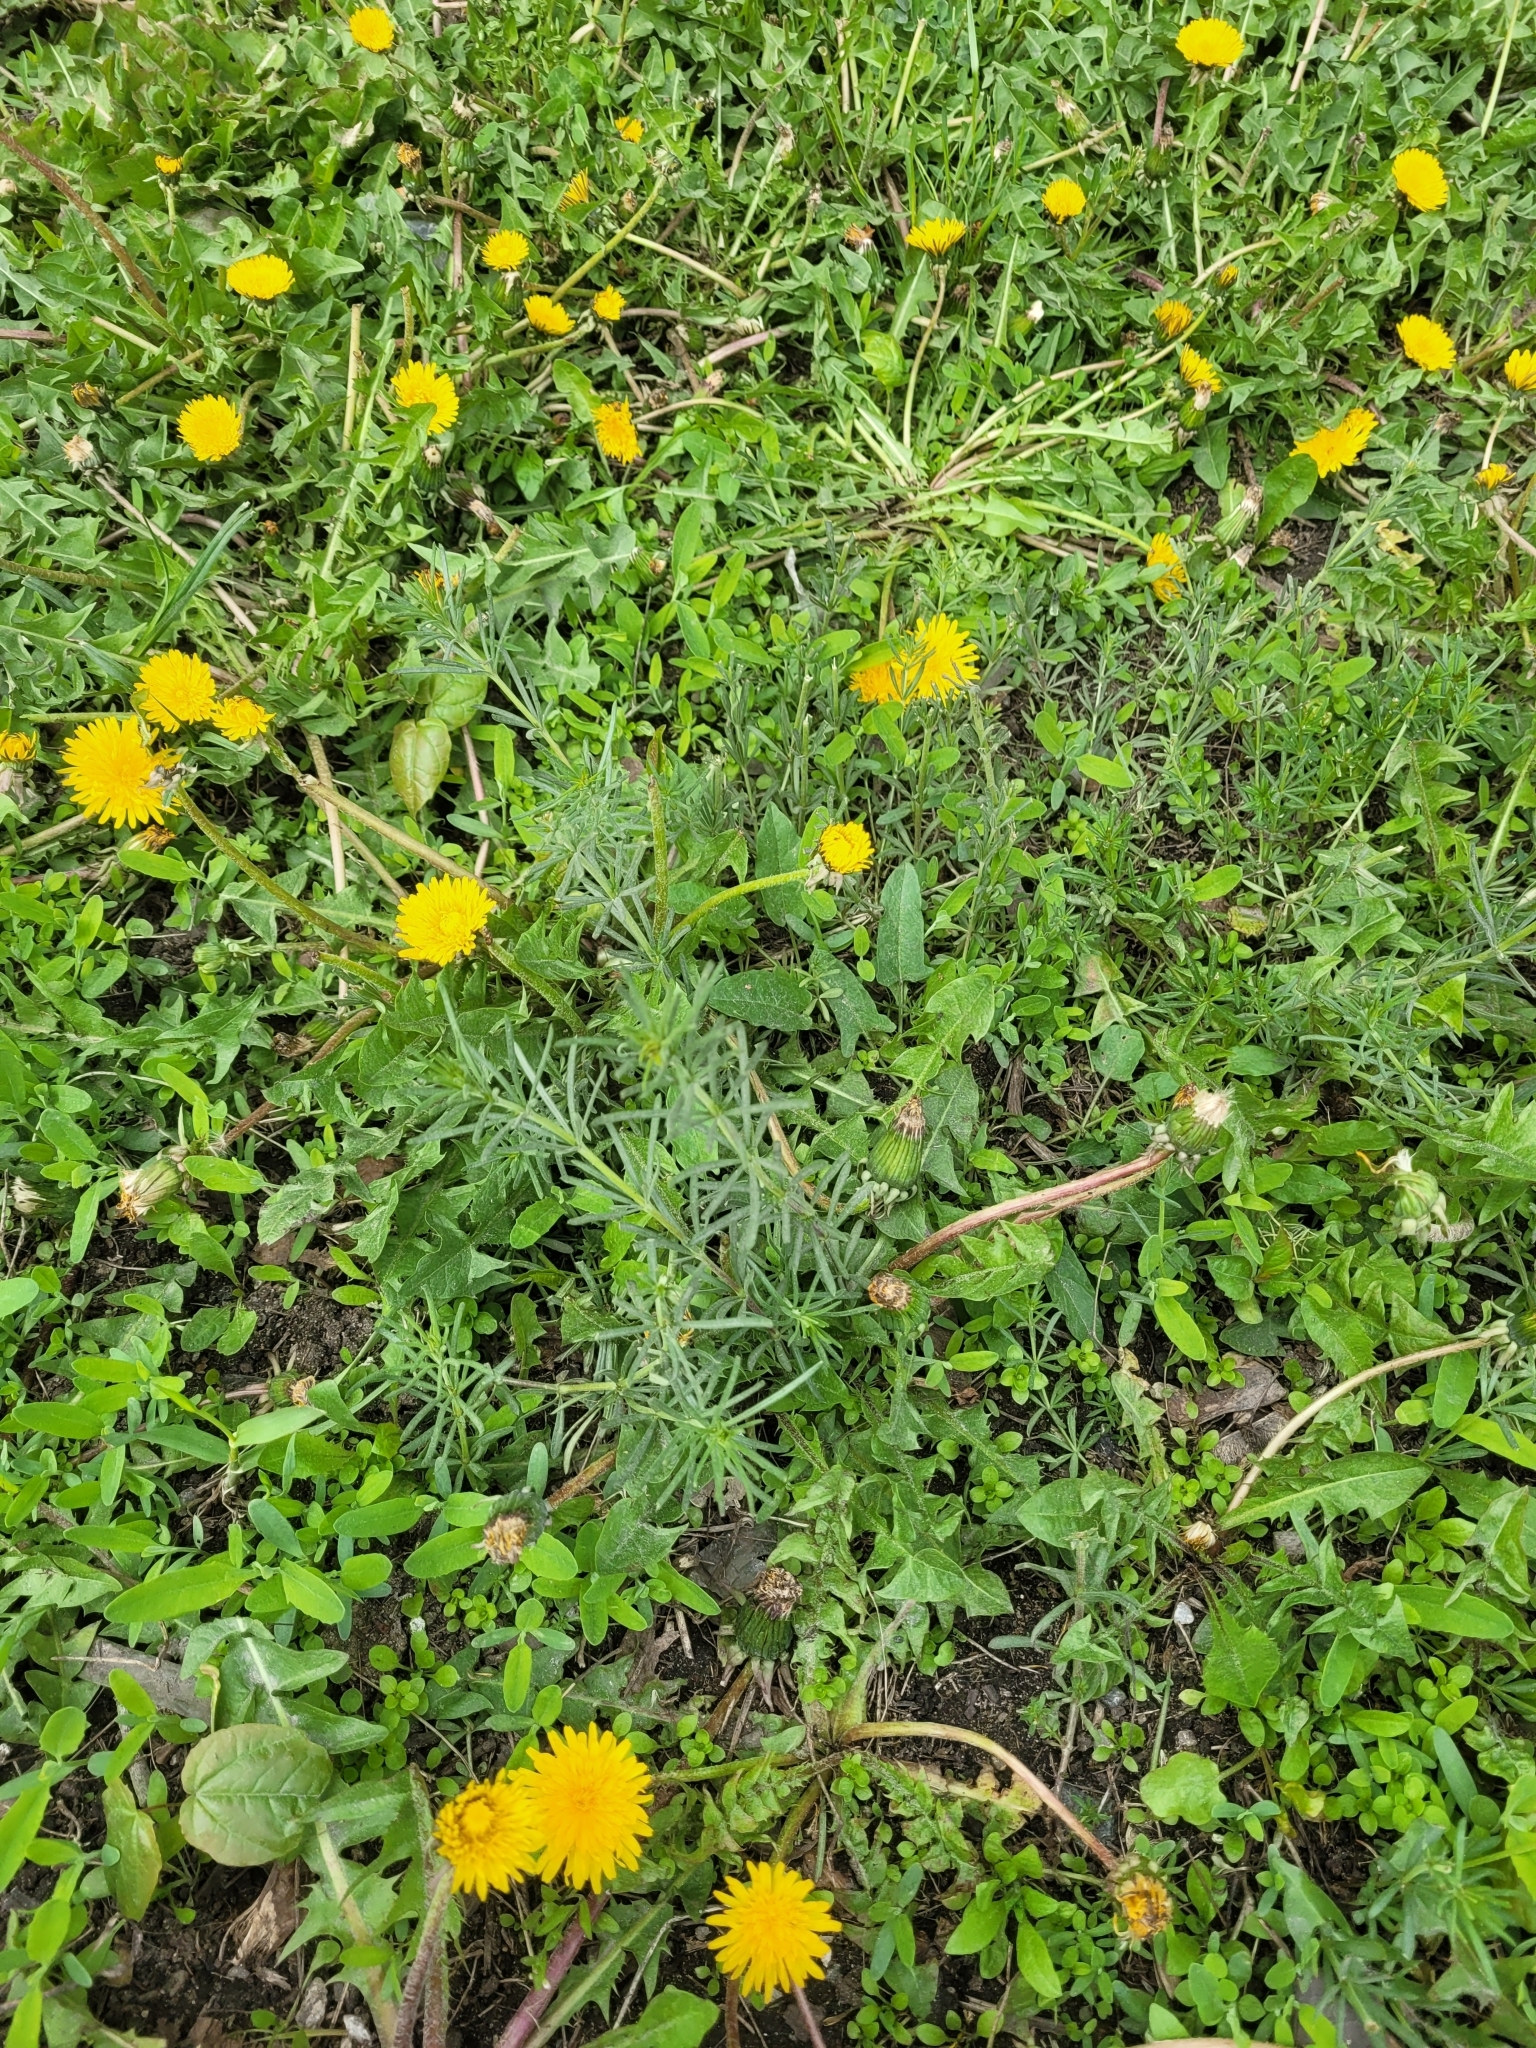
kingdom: Plantae
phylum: Tracheophyta
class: Magnoliopsida
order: Gentianales
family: Rubiaceae
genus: Galium
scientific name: Galium verum
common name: Lady's bedstraw
